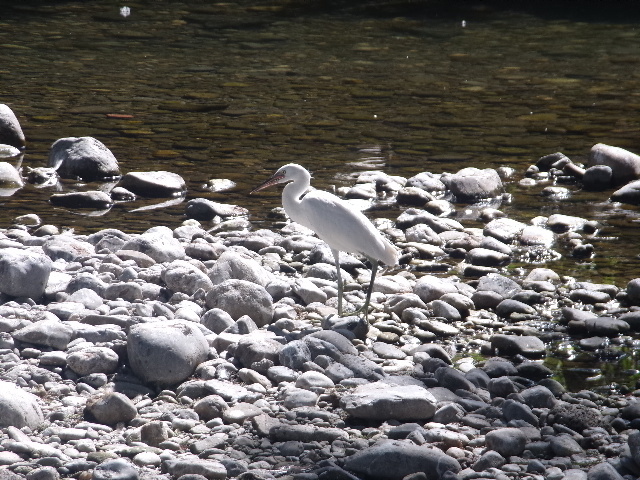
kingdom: Animalia
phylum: Chordata
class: Aves
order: Pelecaniformes
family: Ardeidae
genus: Egretta
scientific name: Egretta thula
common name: Snowy egret
